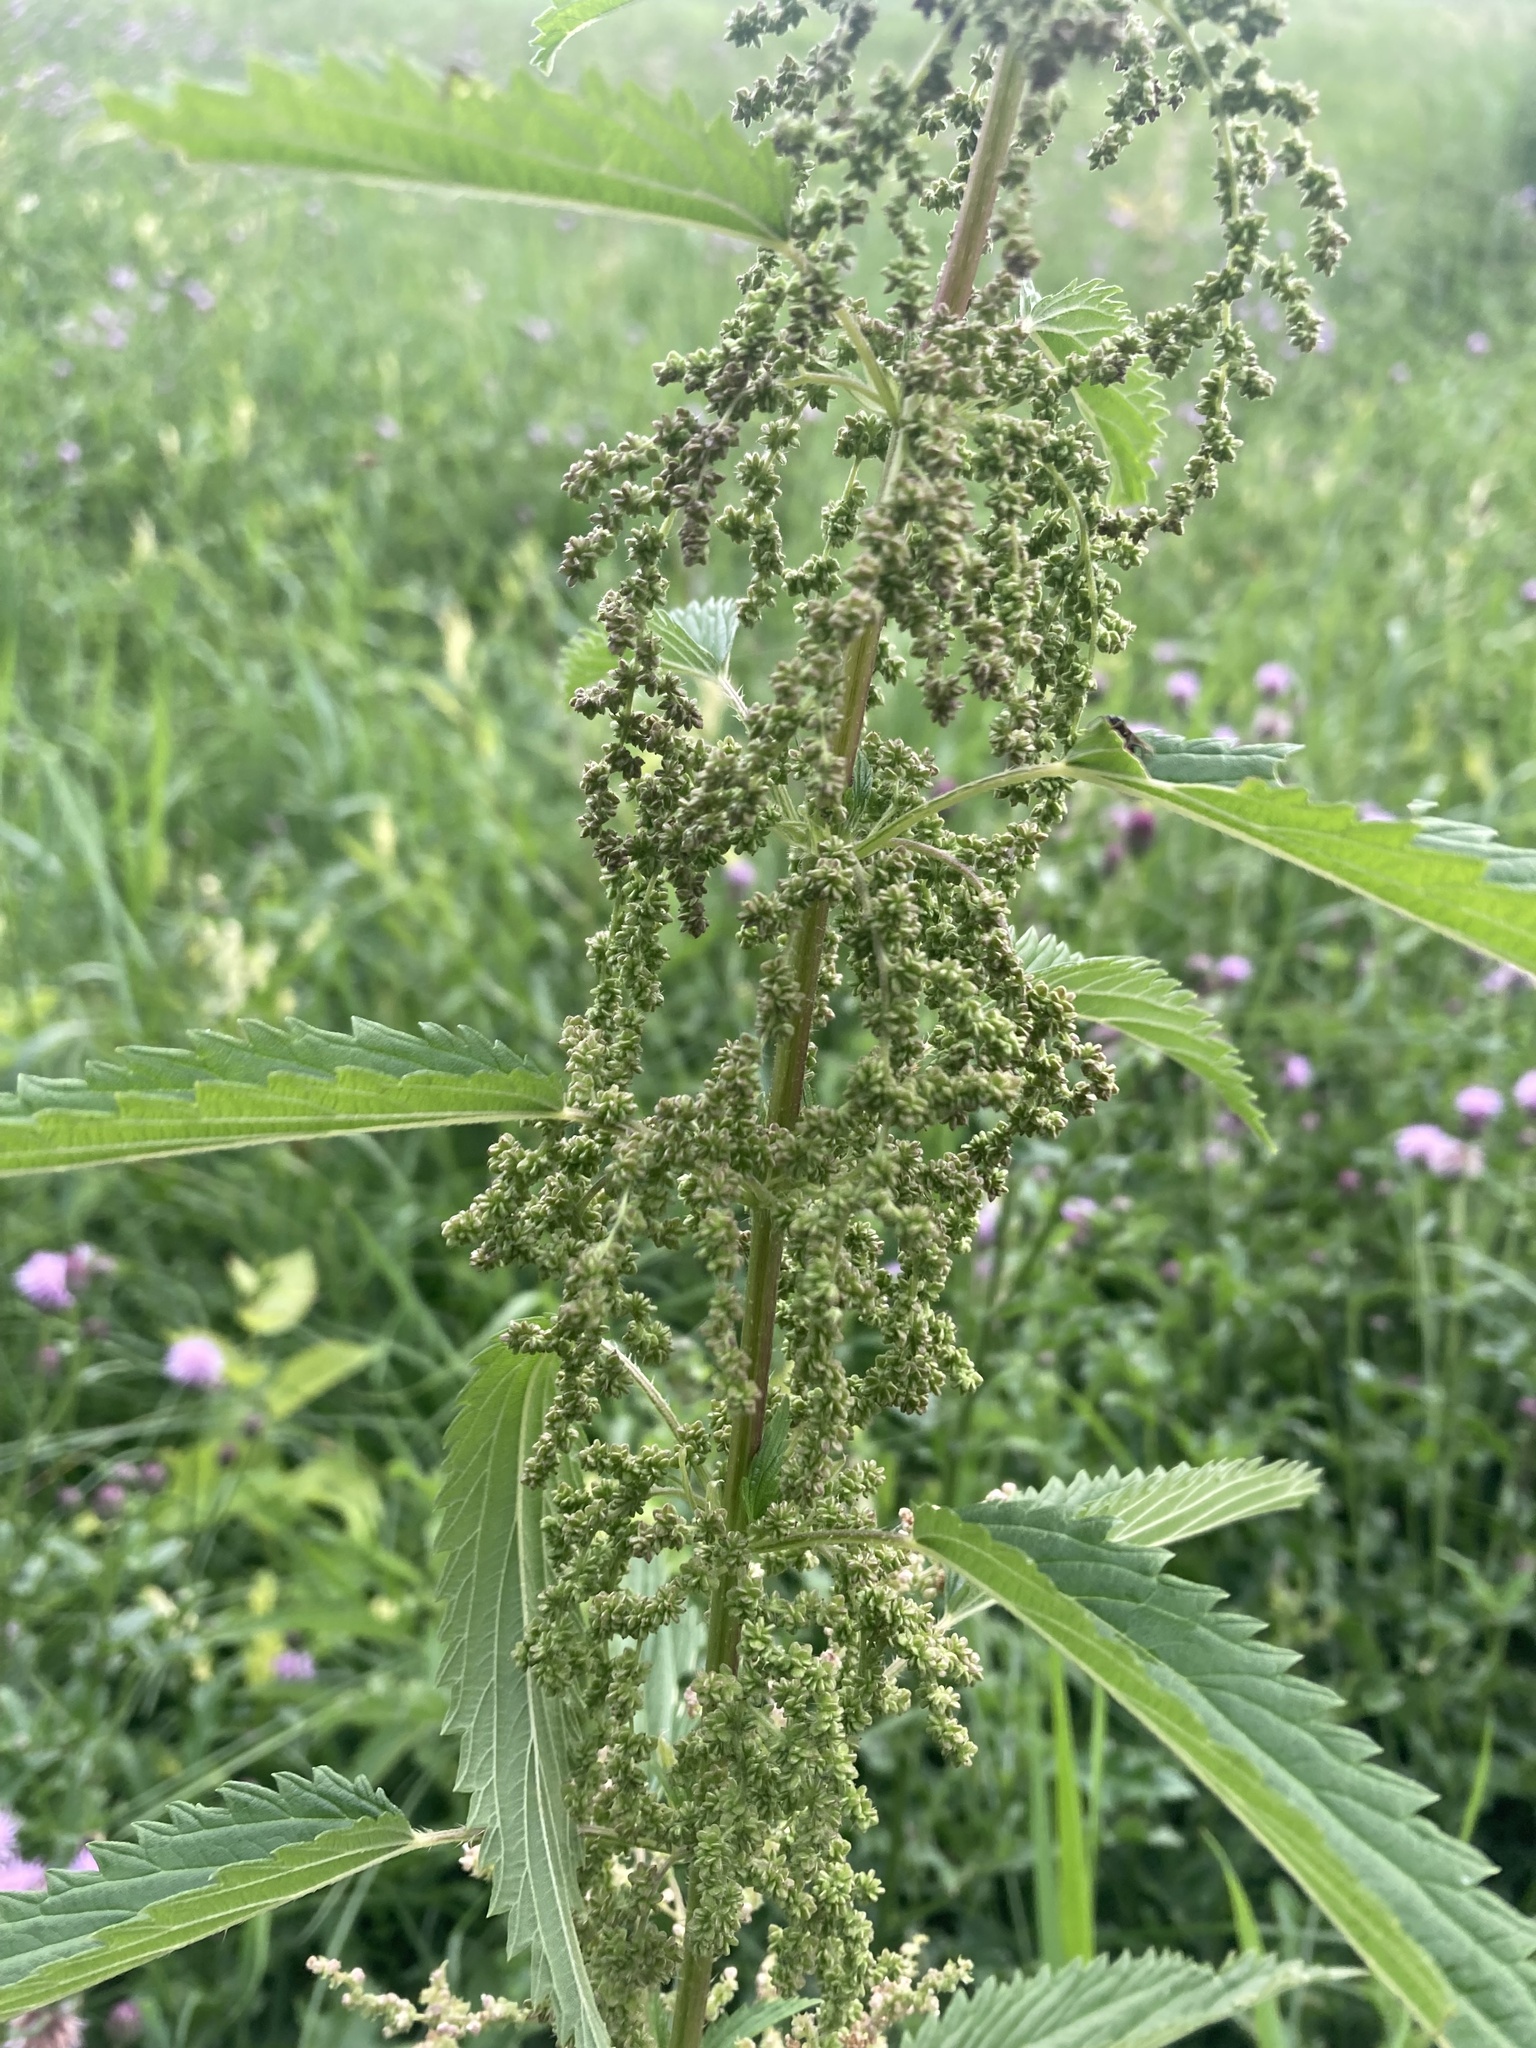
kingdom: Plantae
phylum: Tracheophyta
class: Magnoliopsida
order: Rosales
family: Urticaceae
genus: Urtica
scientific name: Urtica gracilis
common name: Slender stinging nettle
